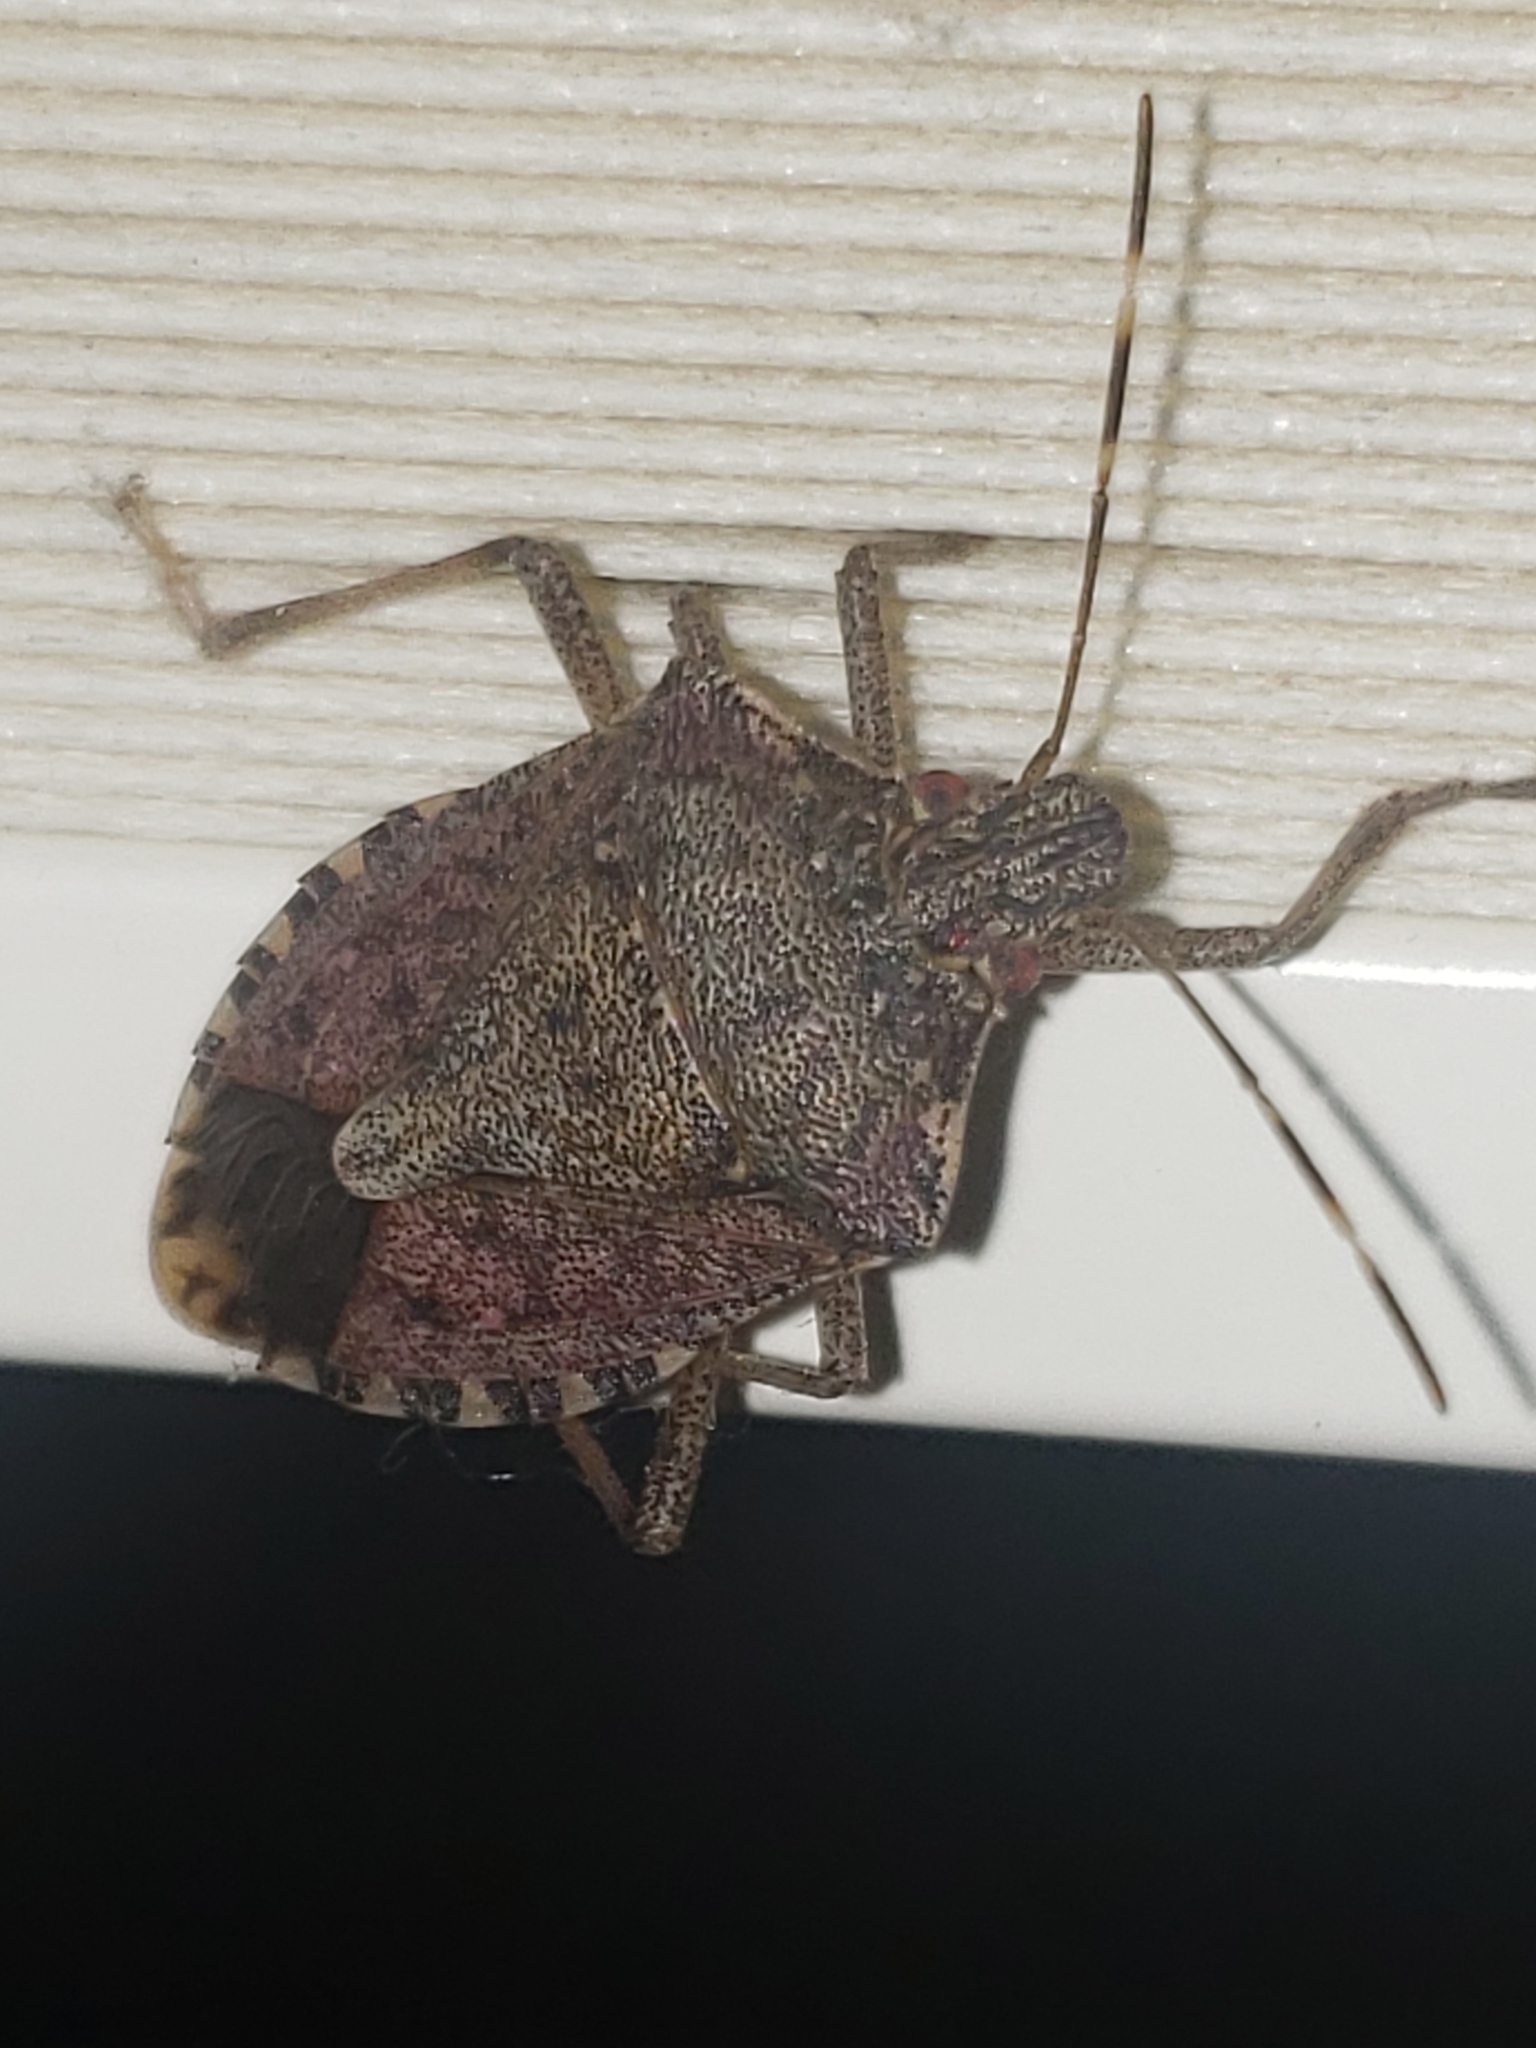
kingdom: Animalia
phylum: Arthropoda
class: Insecta
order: Hemiptera
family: Pentatomidae
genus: Halyomorpha
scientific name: Halyomorpha halys
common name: Brown marmorated stink bug
